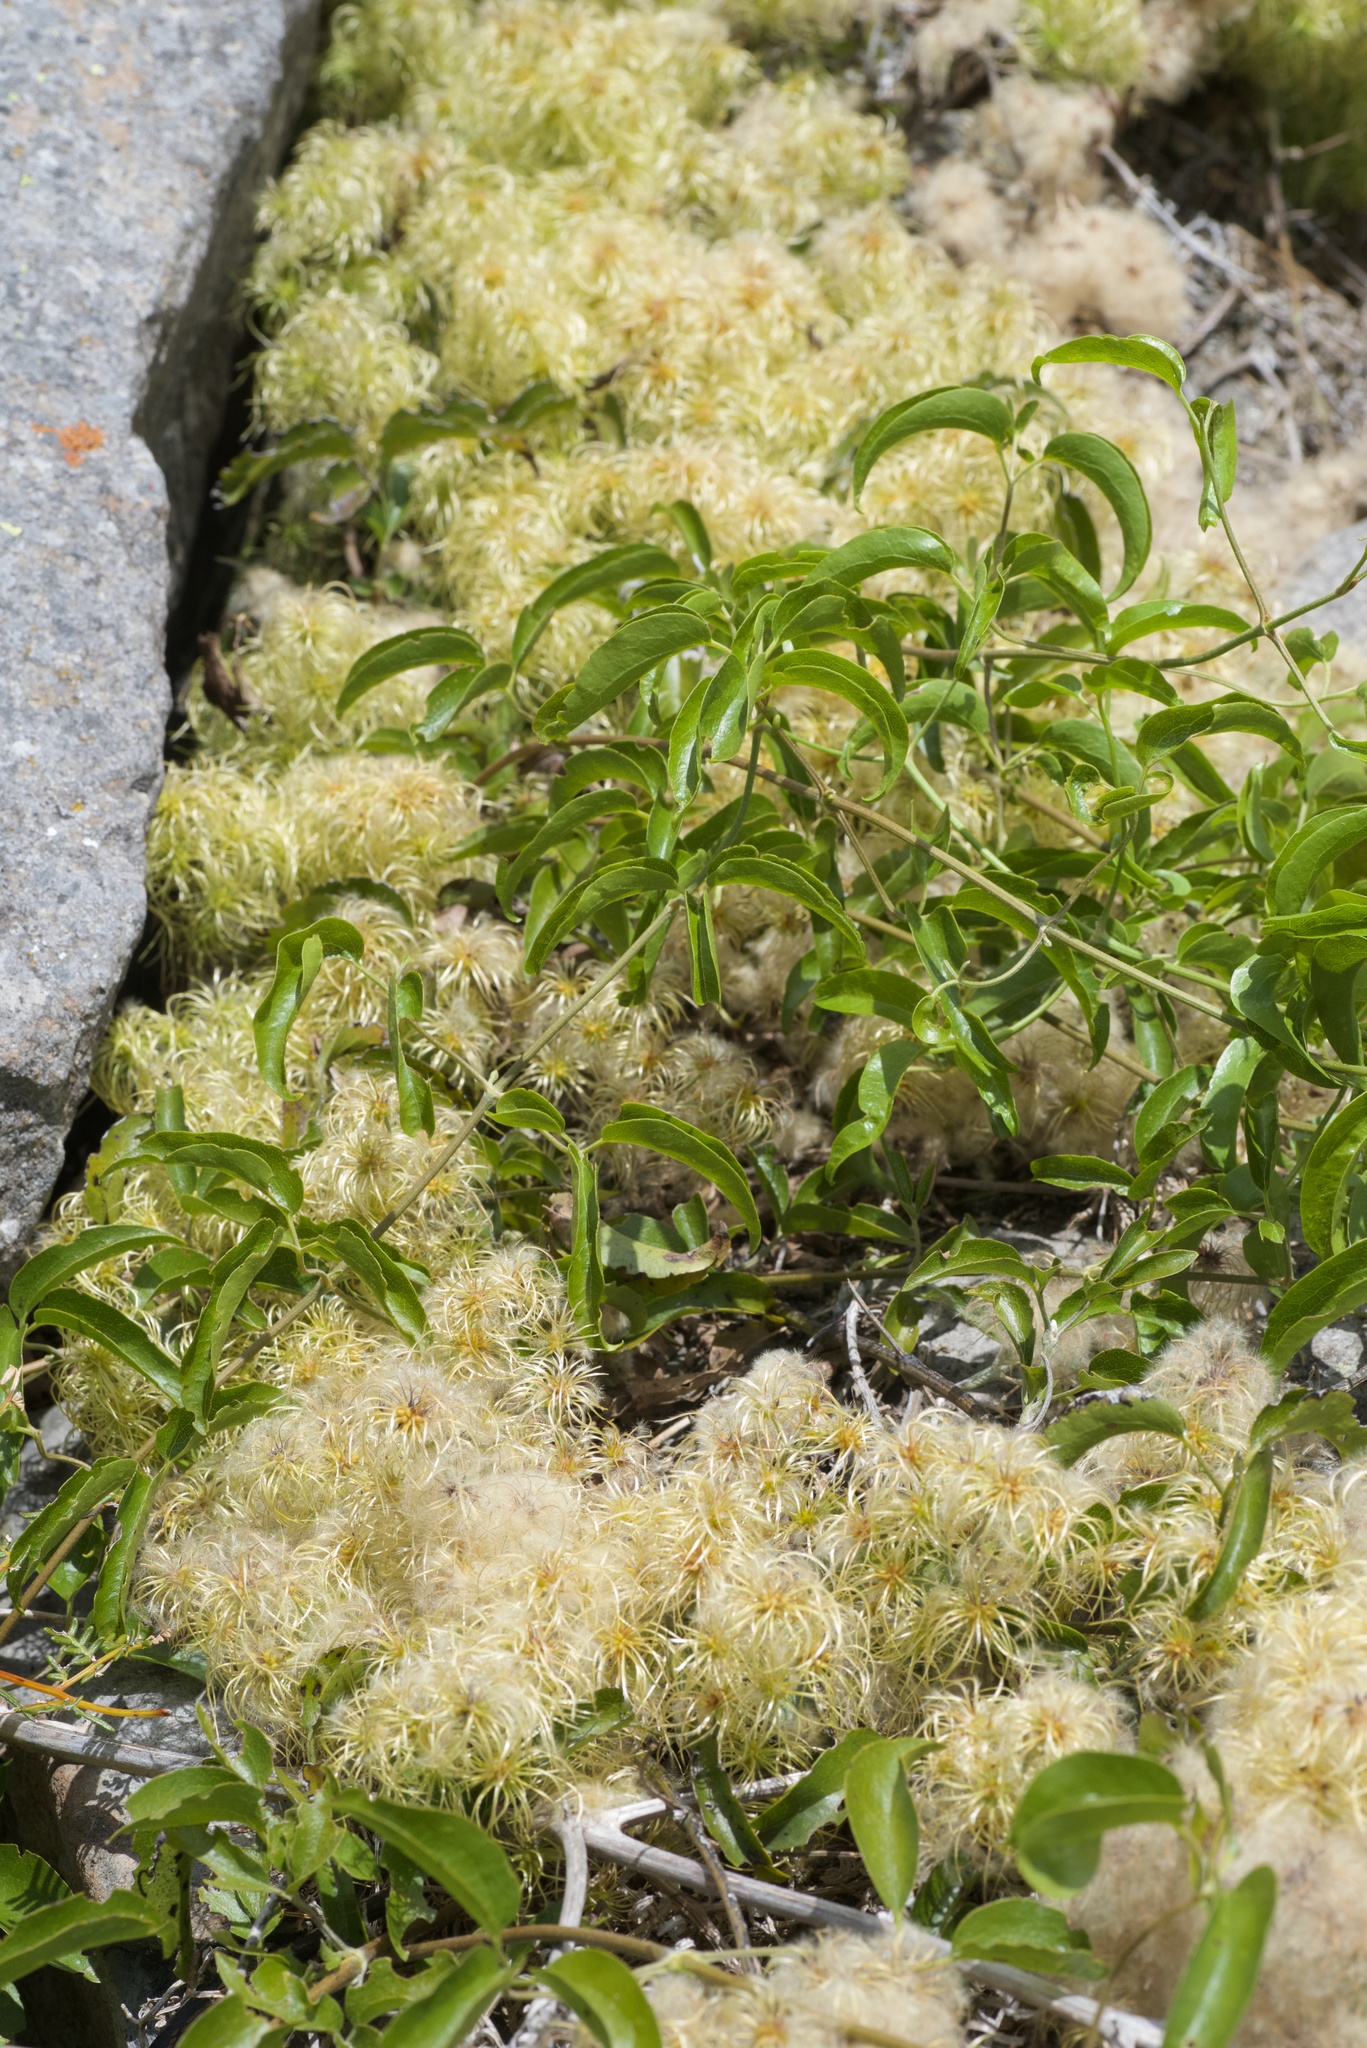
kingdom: Plantae
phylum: Tracheophyta
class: Magnoliopsida
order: Ranunculales
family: Ranunculaceae
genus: Clematis
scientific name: Clematis foetida
